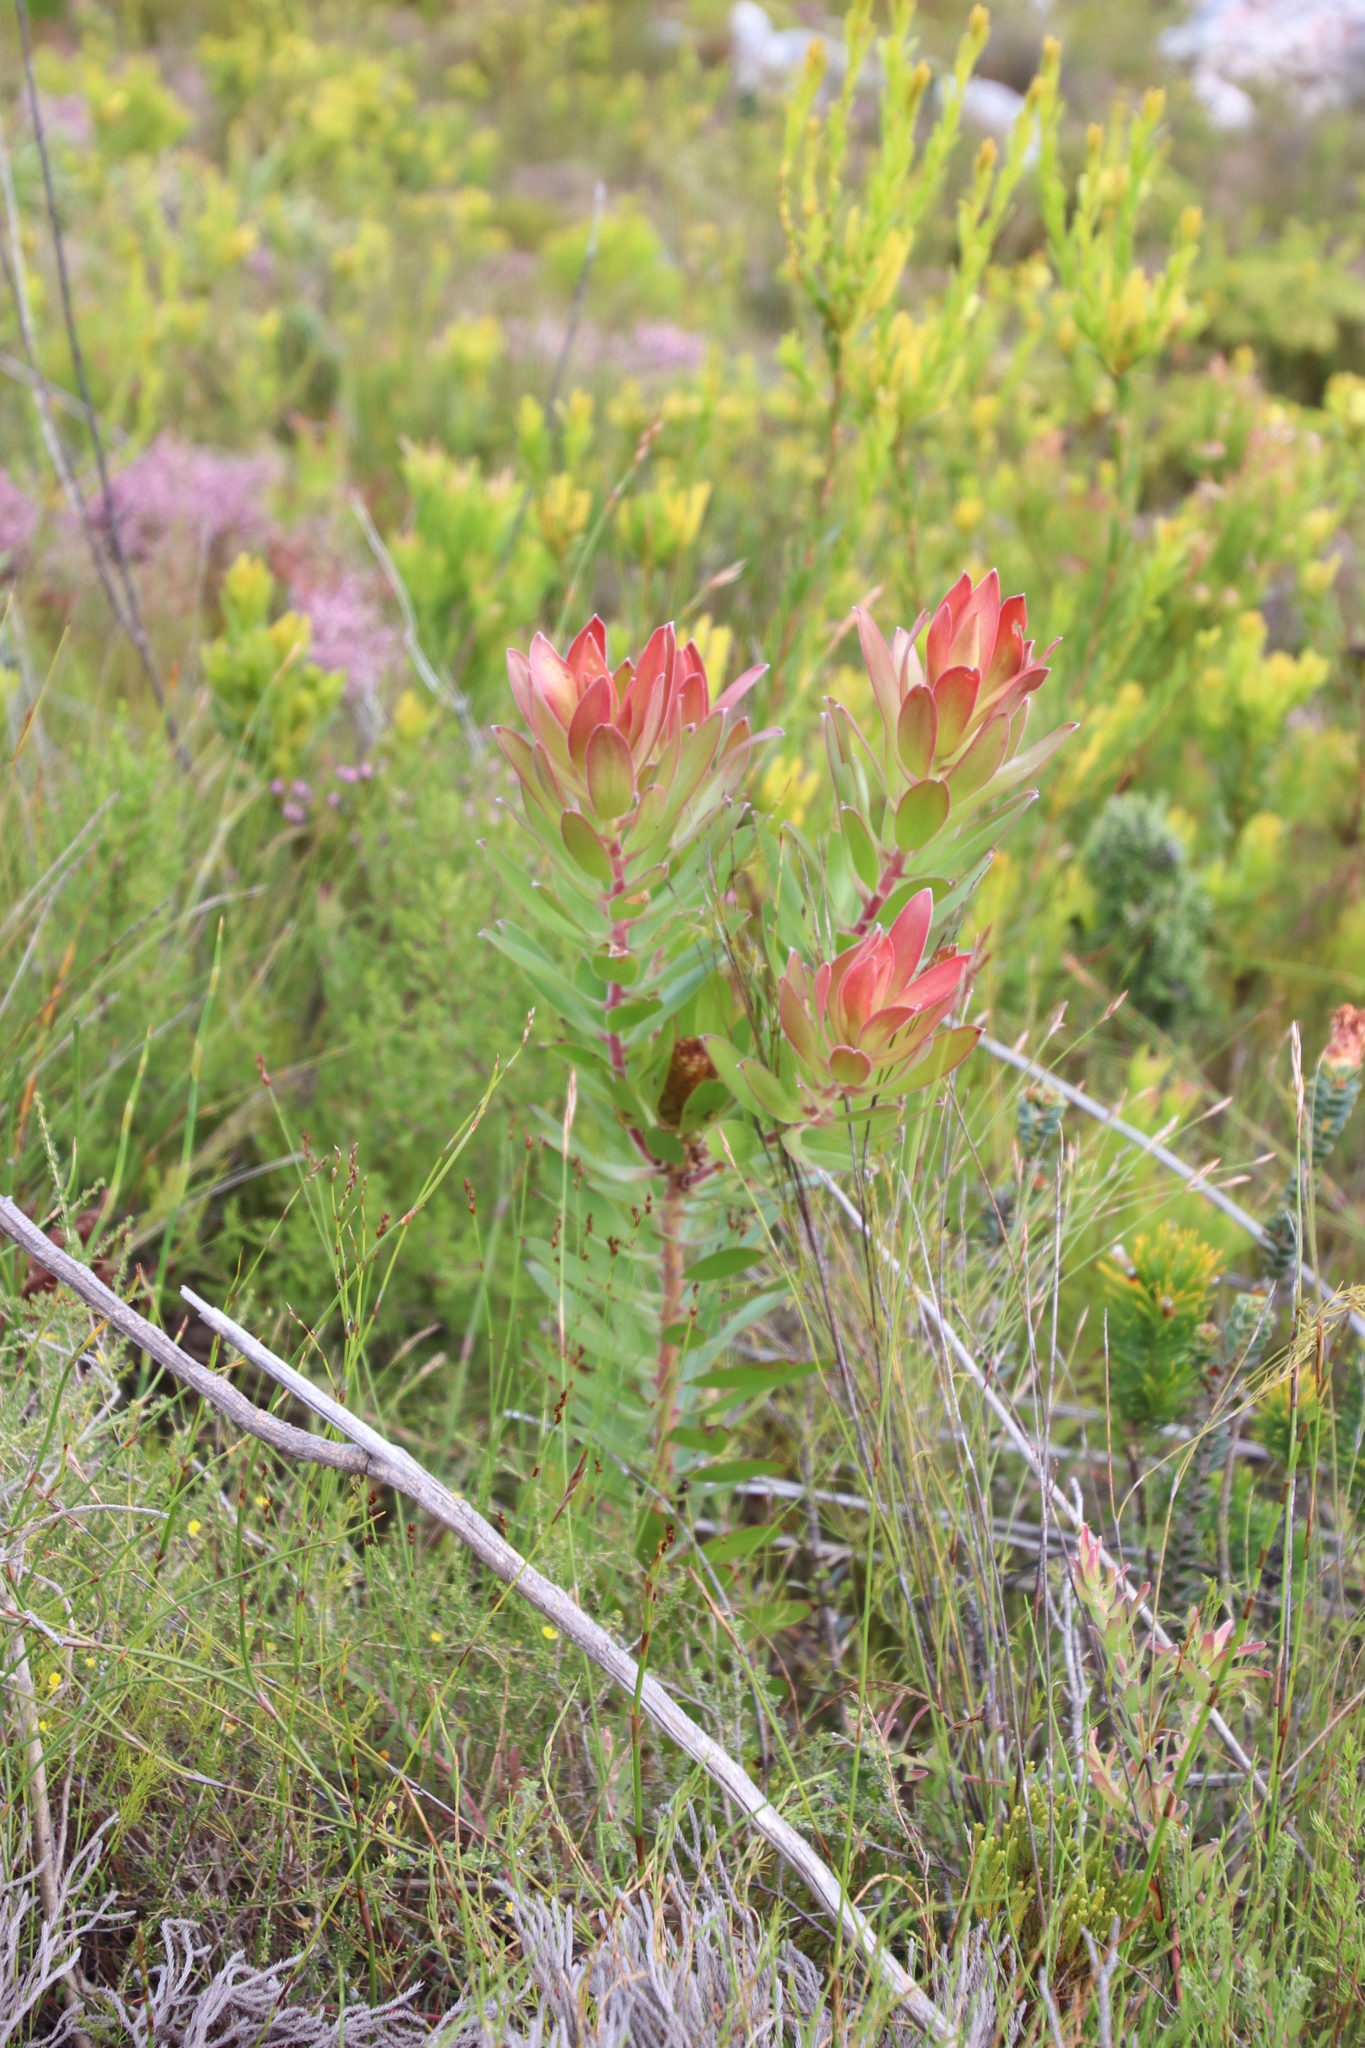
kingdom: Plantae
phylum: Tracheophyta
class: Magnoliopsida
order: Proteales
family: Proteaceae
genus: Leucadendron
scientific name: Leucadendron gandogeri
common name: Broad-leaf conebush
